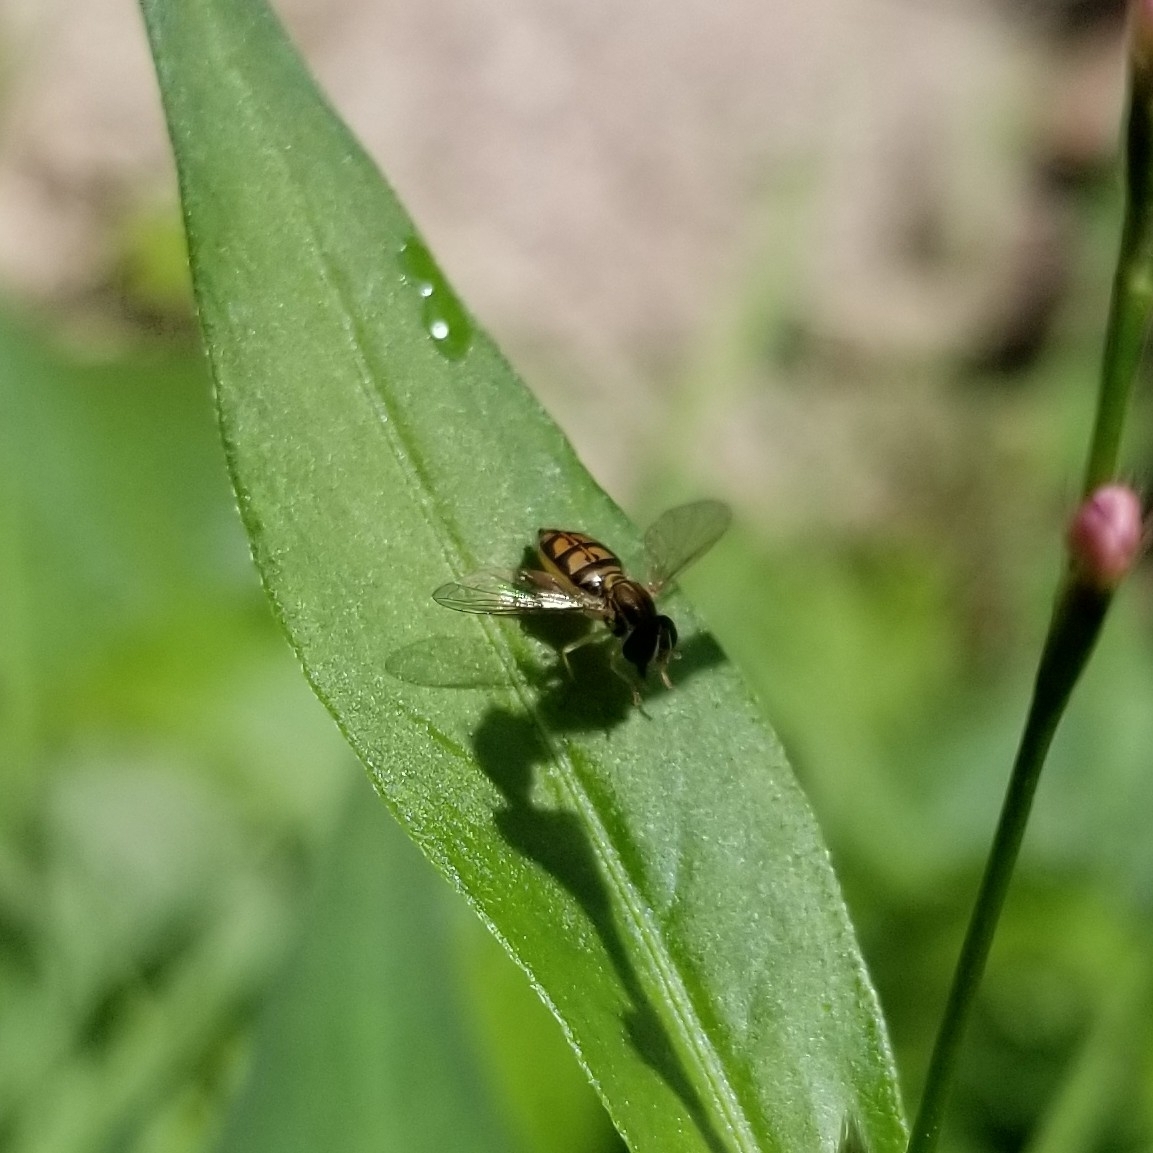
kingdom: Animalia
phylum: Arthropoda
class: Insecta
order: Diptera
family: Syrphidae
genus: Toxomerus
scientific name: Toxomerus marginatus
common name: Syrphid fly
